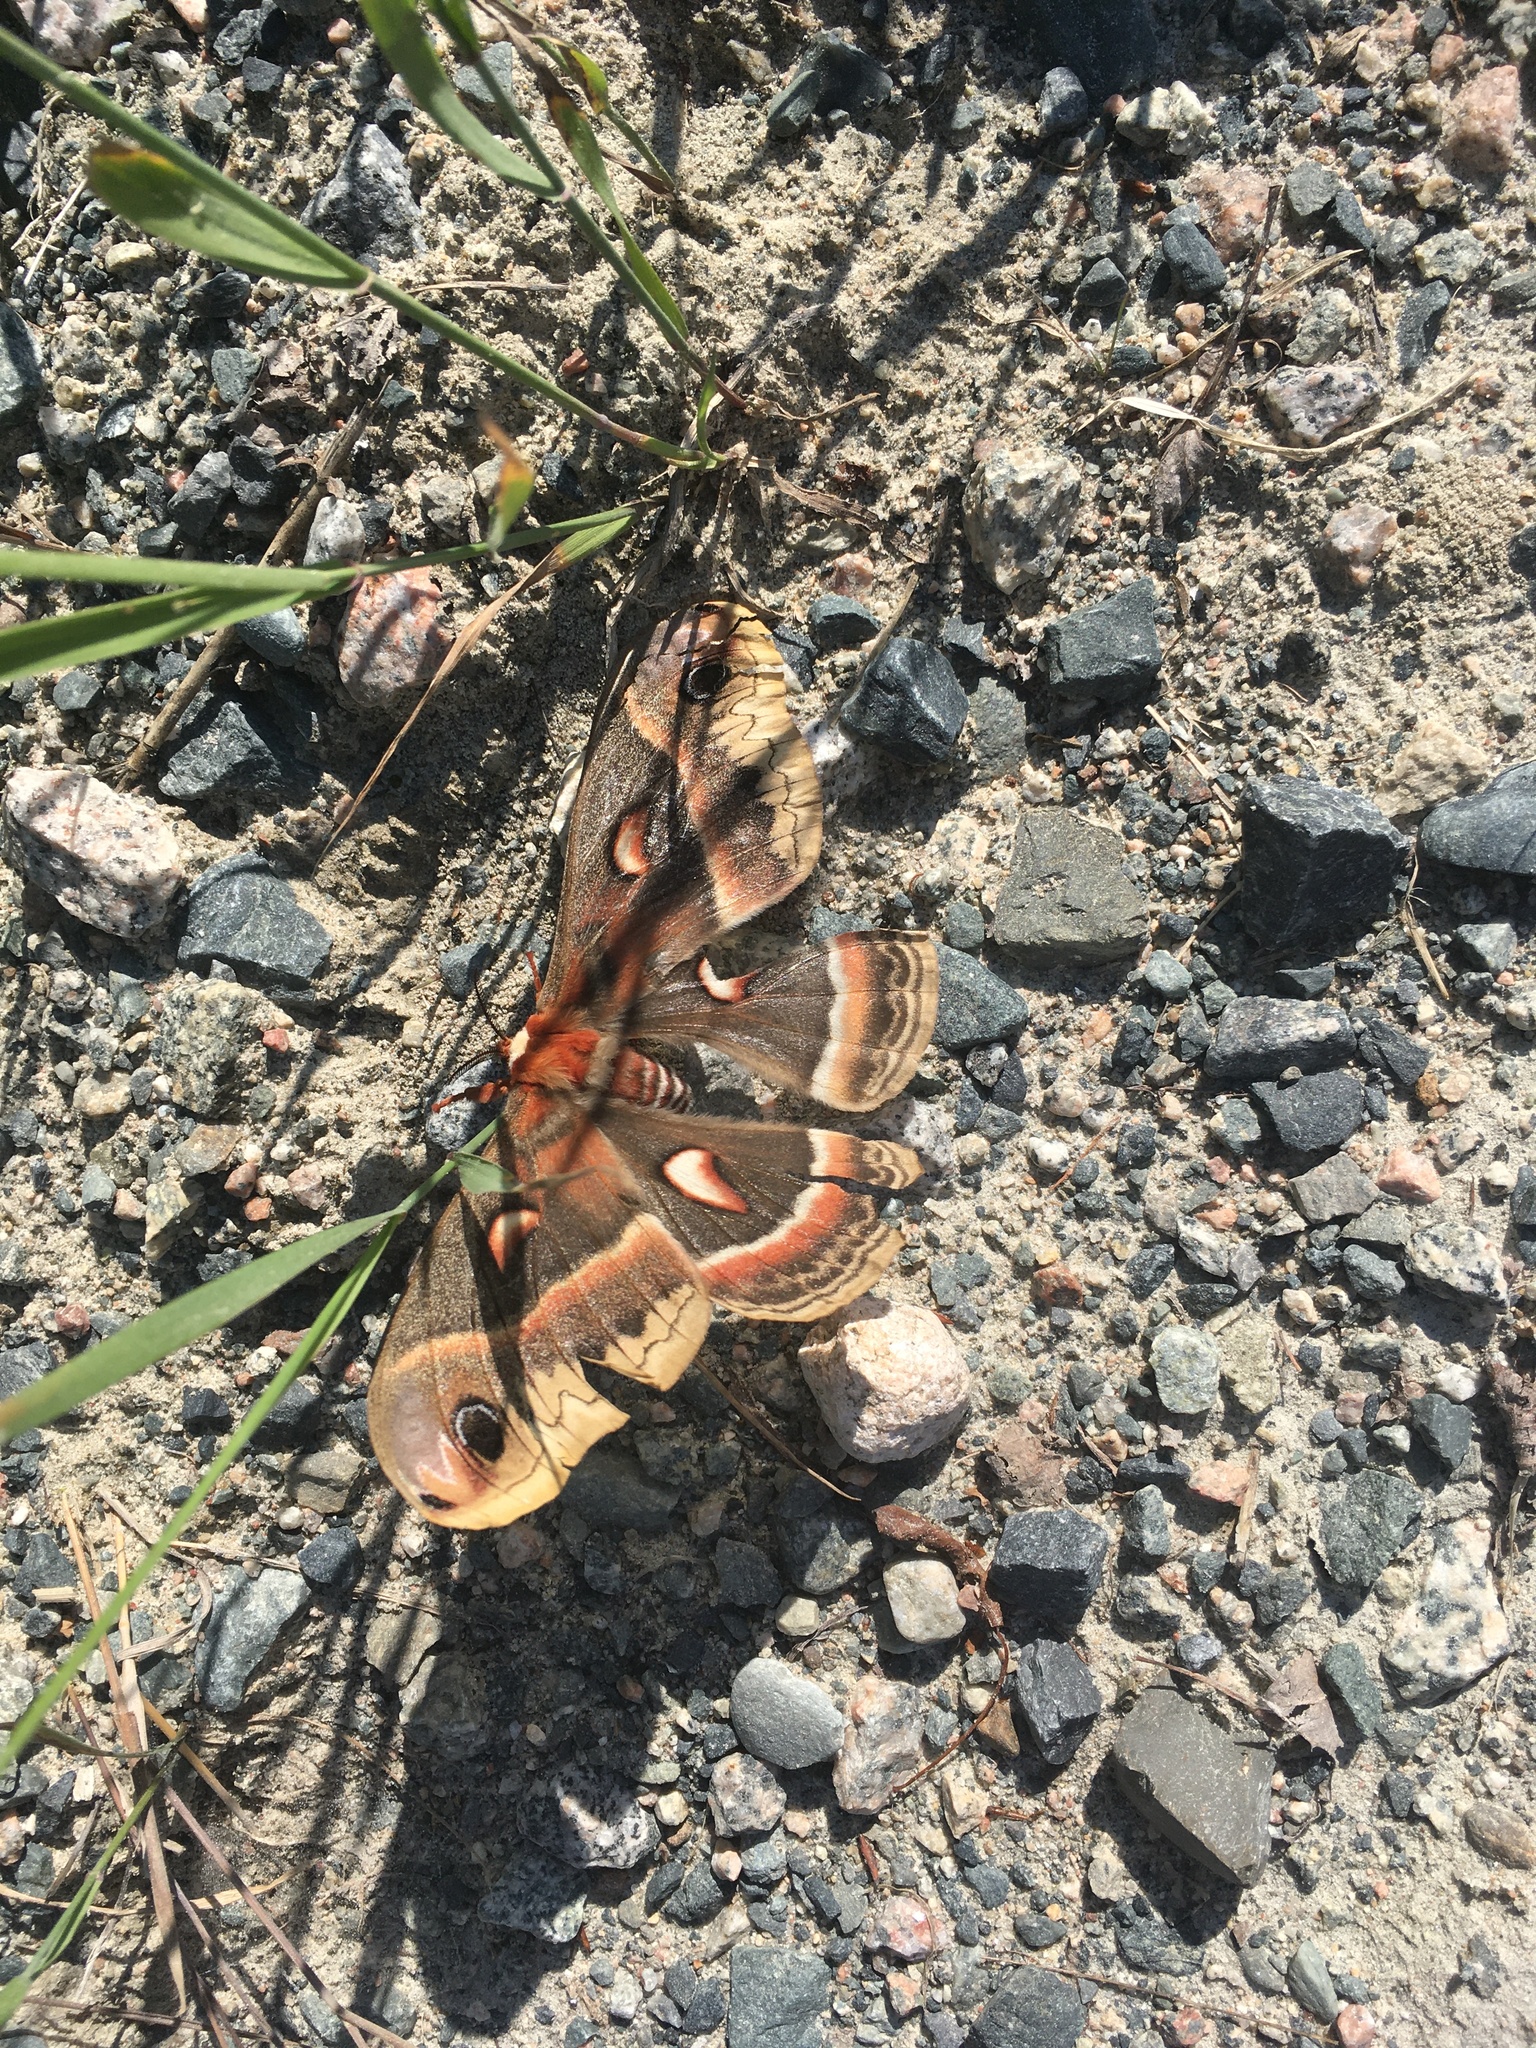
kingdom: Animalia
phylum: Arthropoda
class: Insecta
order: Lepidoptera
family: Saturniidae
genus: Hyalophora
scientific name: Hyalophora cecropia
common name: Cecropia silkmoth
